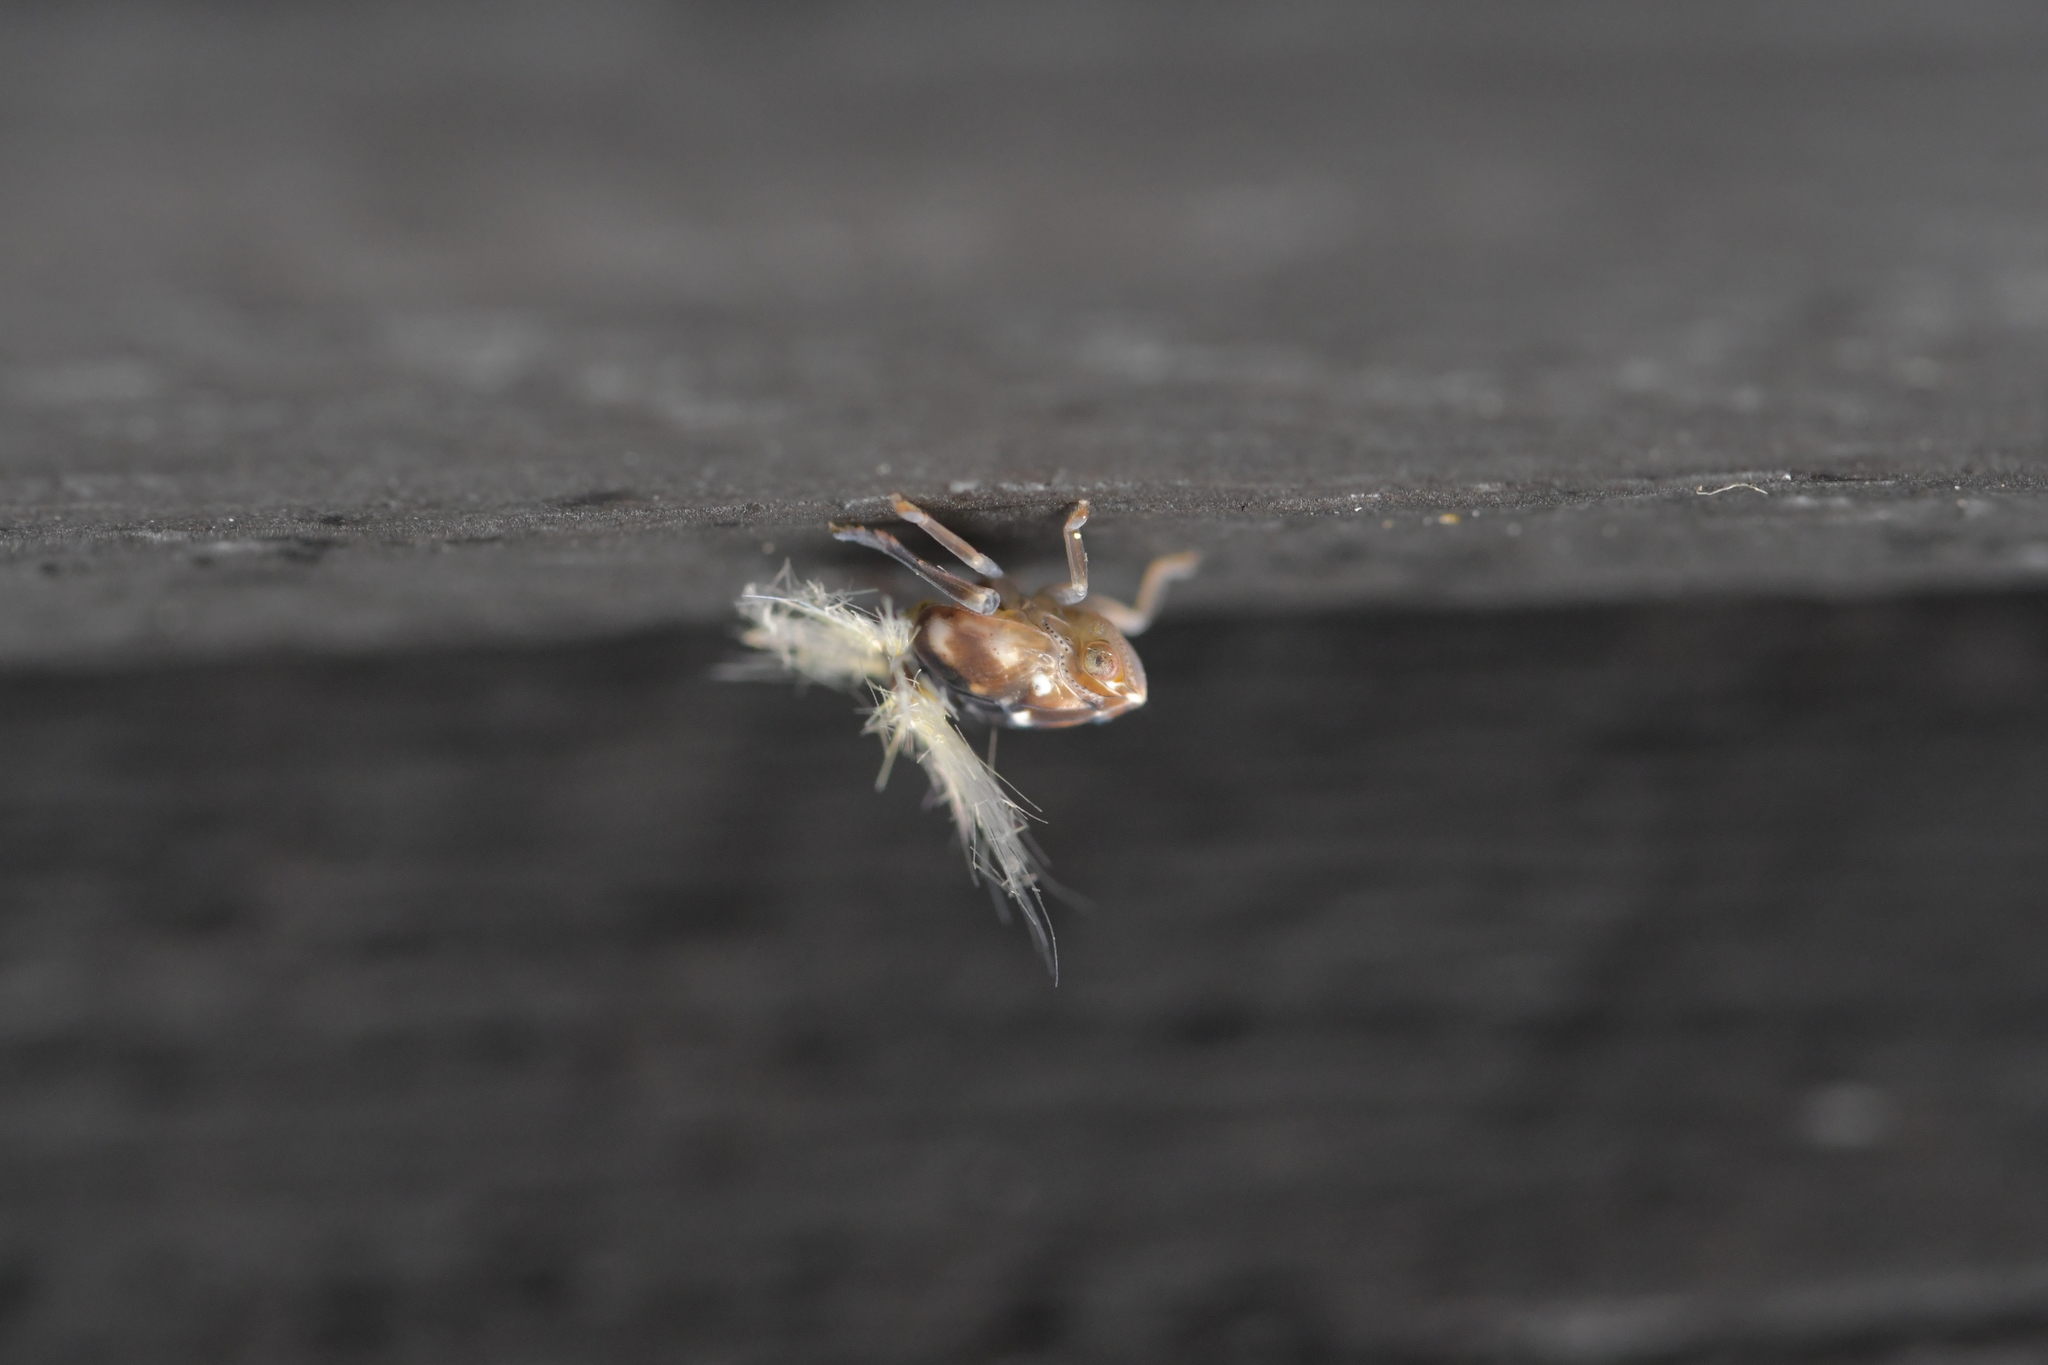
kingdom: Animalia
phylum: Arthropoda
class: Insecta
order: Hemiptera
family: Ricaniidae
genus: Scolypopa
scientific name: Scolypopa australis
